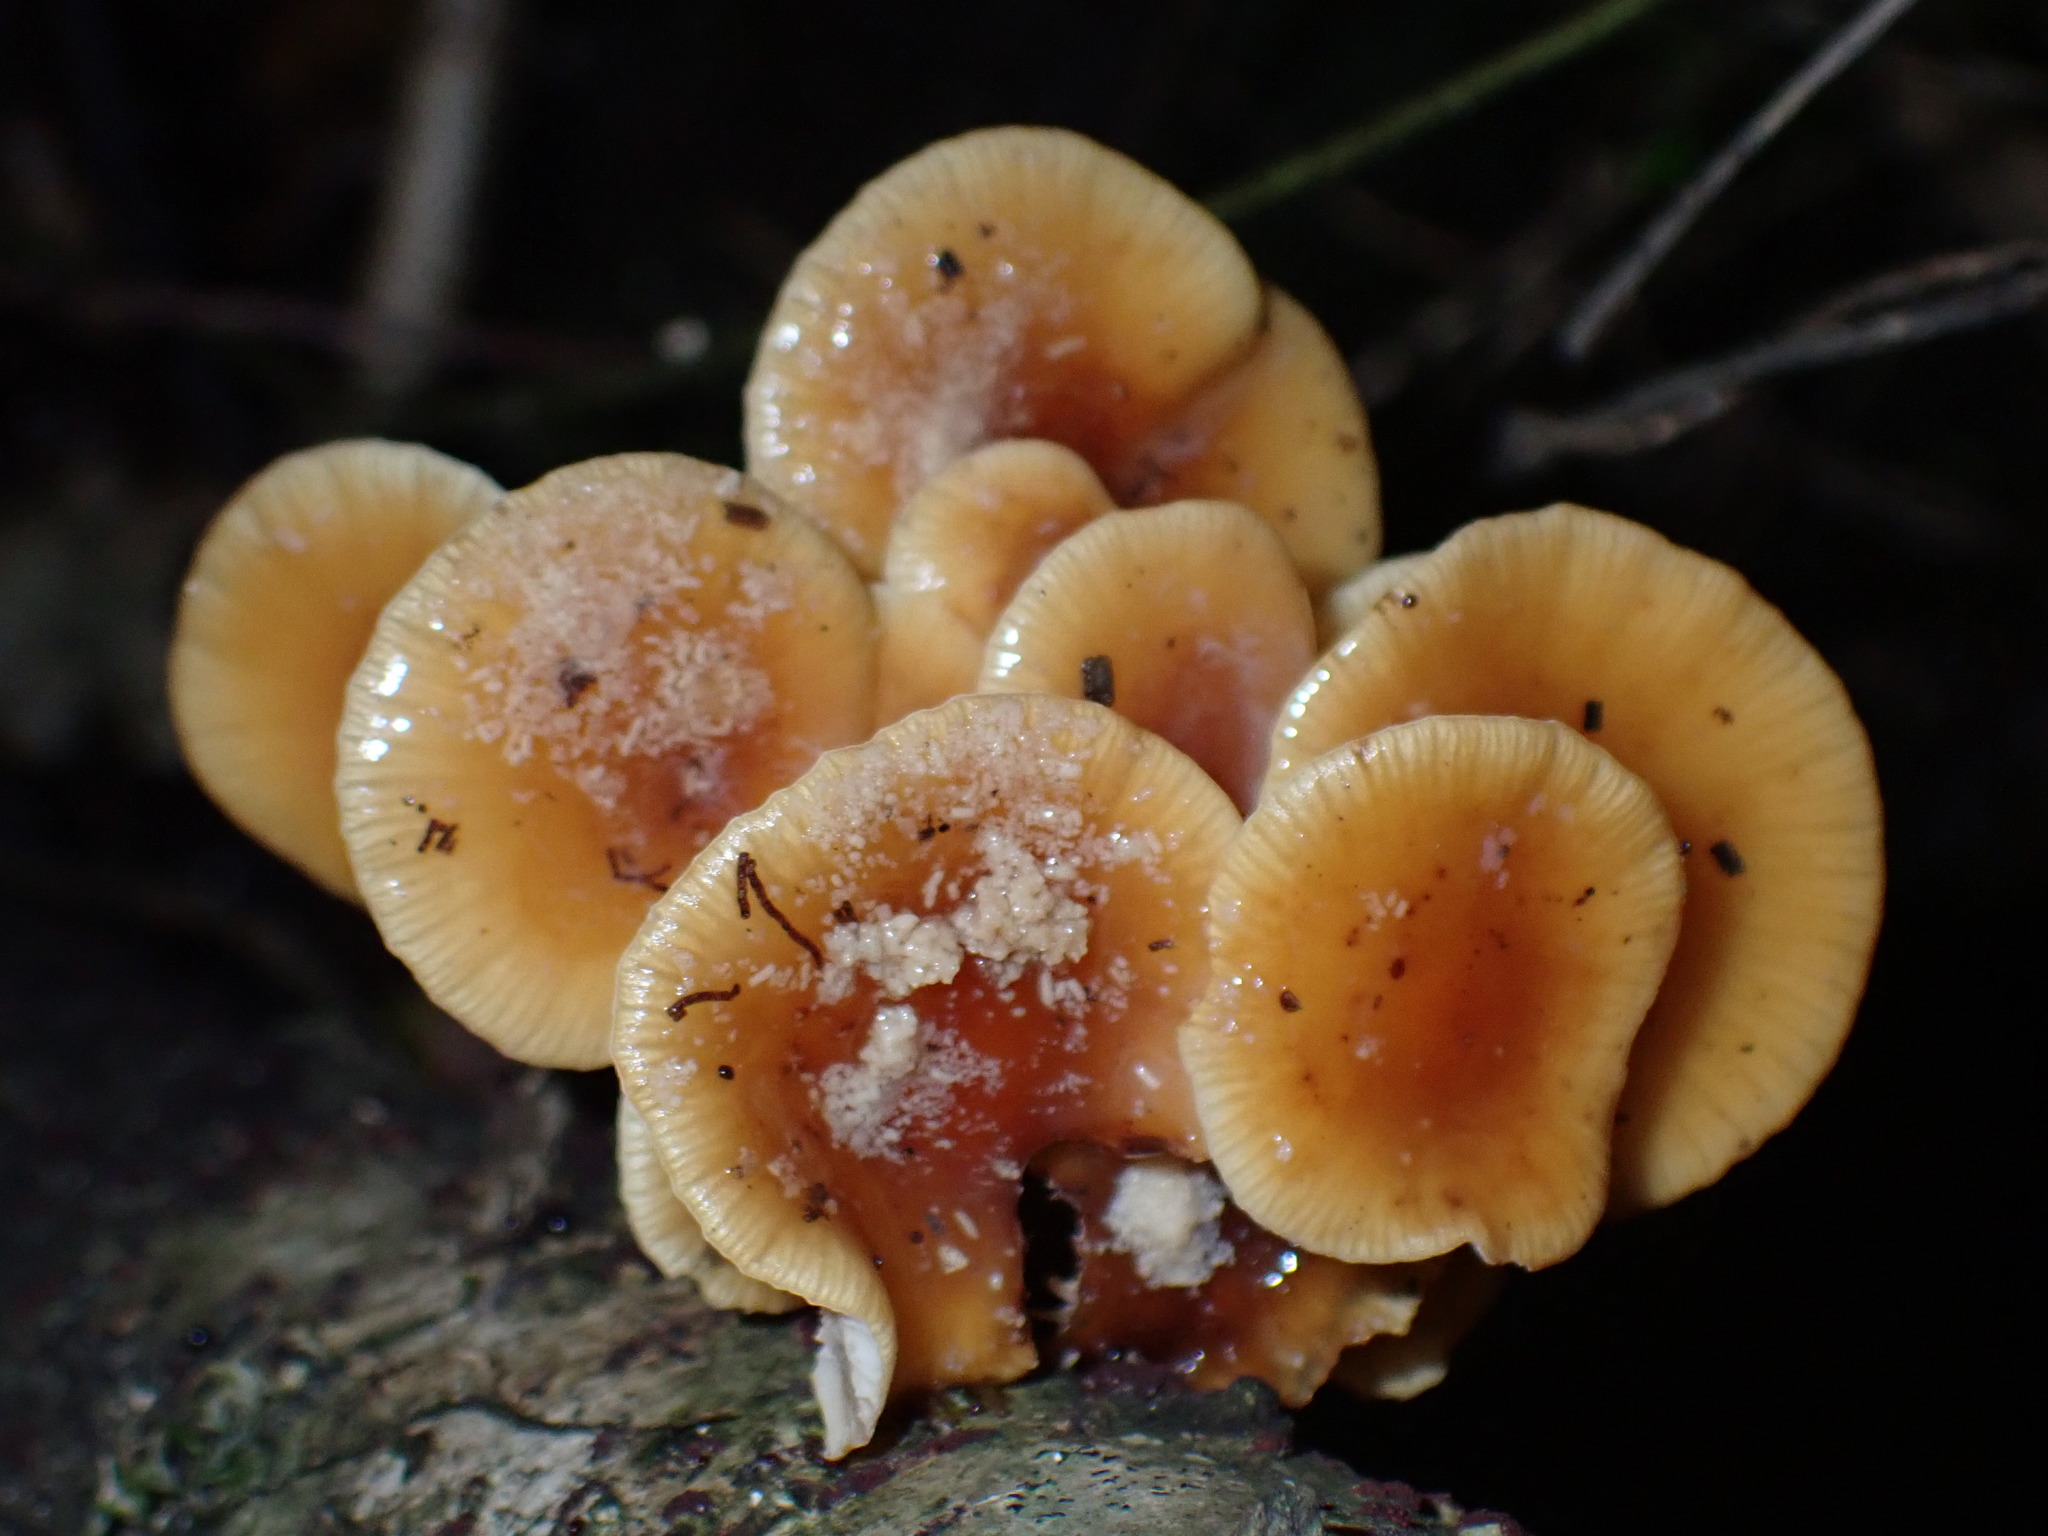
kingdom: Fungi
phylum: Basidiomycota
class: Agaricomycetes
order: Agaricales
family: Physalacriaceae
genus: Flammulina
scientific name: Flammulina velutipes
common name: Velvet shank
